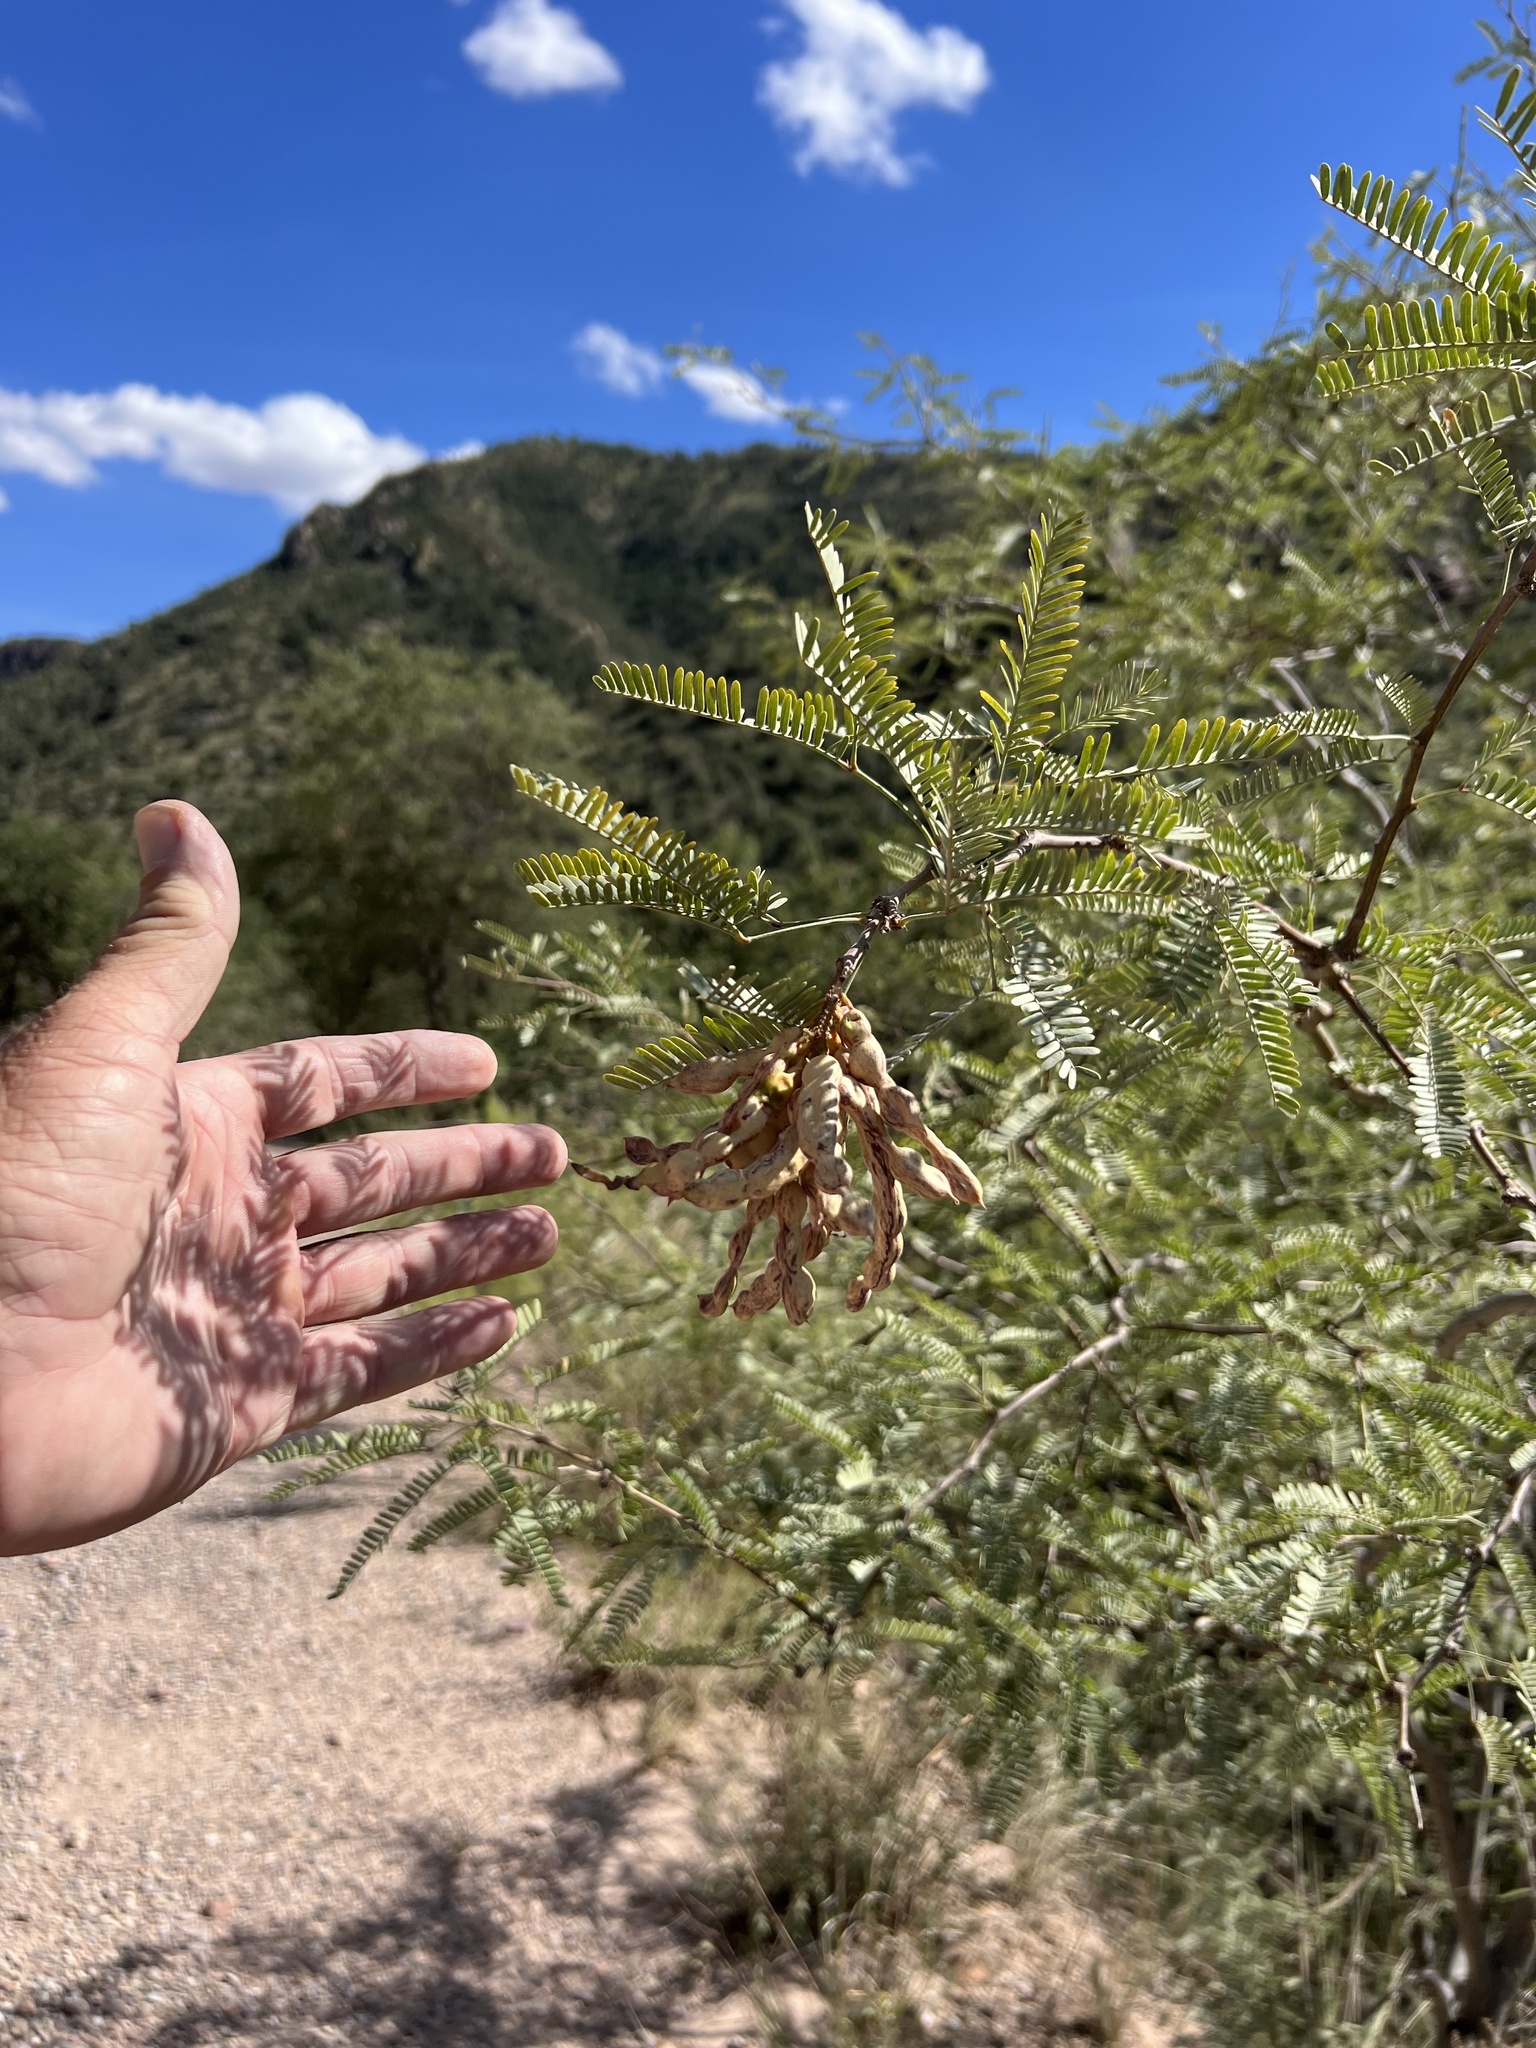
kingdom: Plantae
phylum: Tracheophyta
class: Magnoliopsida
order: Fabales
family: Fabaceae
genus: Prosopis
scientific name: Prosopis velutina
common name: Velvet mesquite
